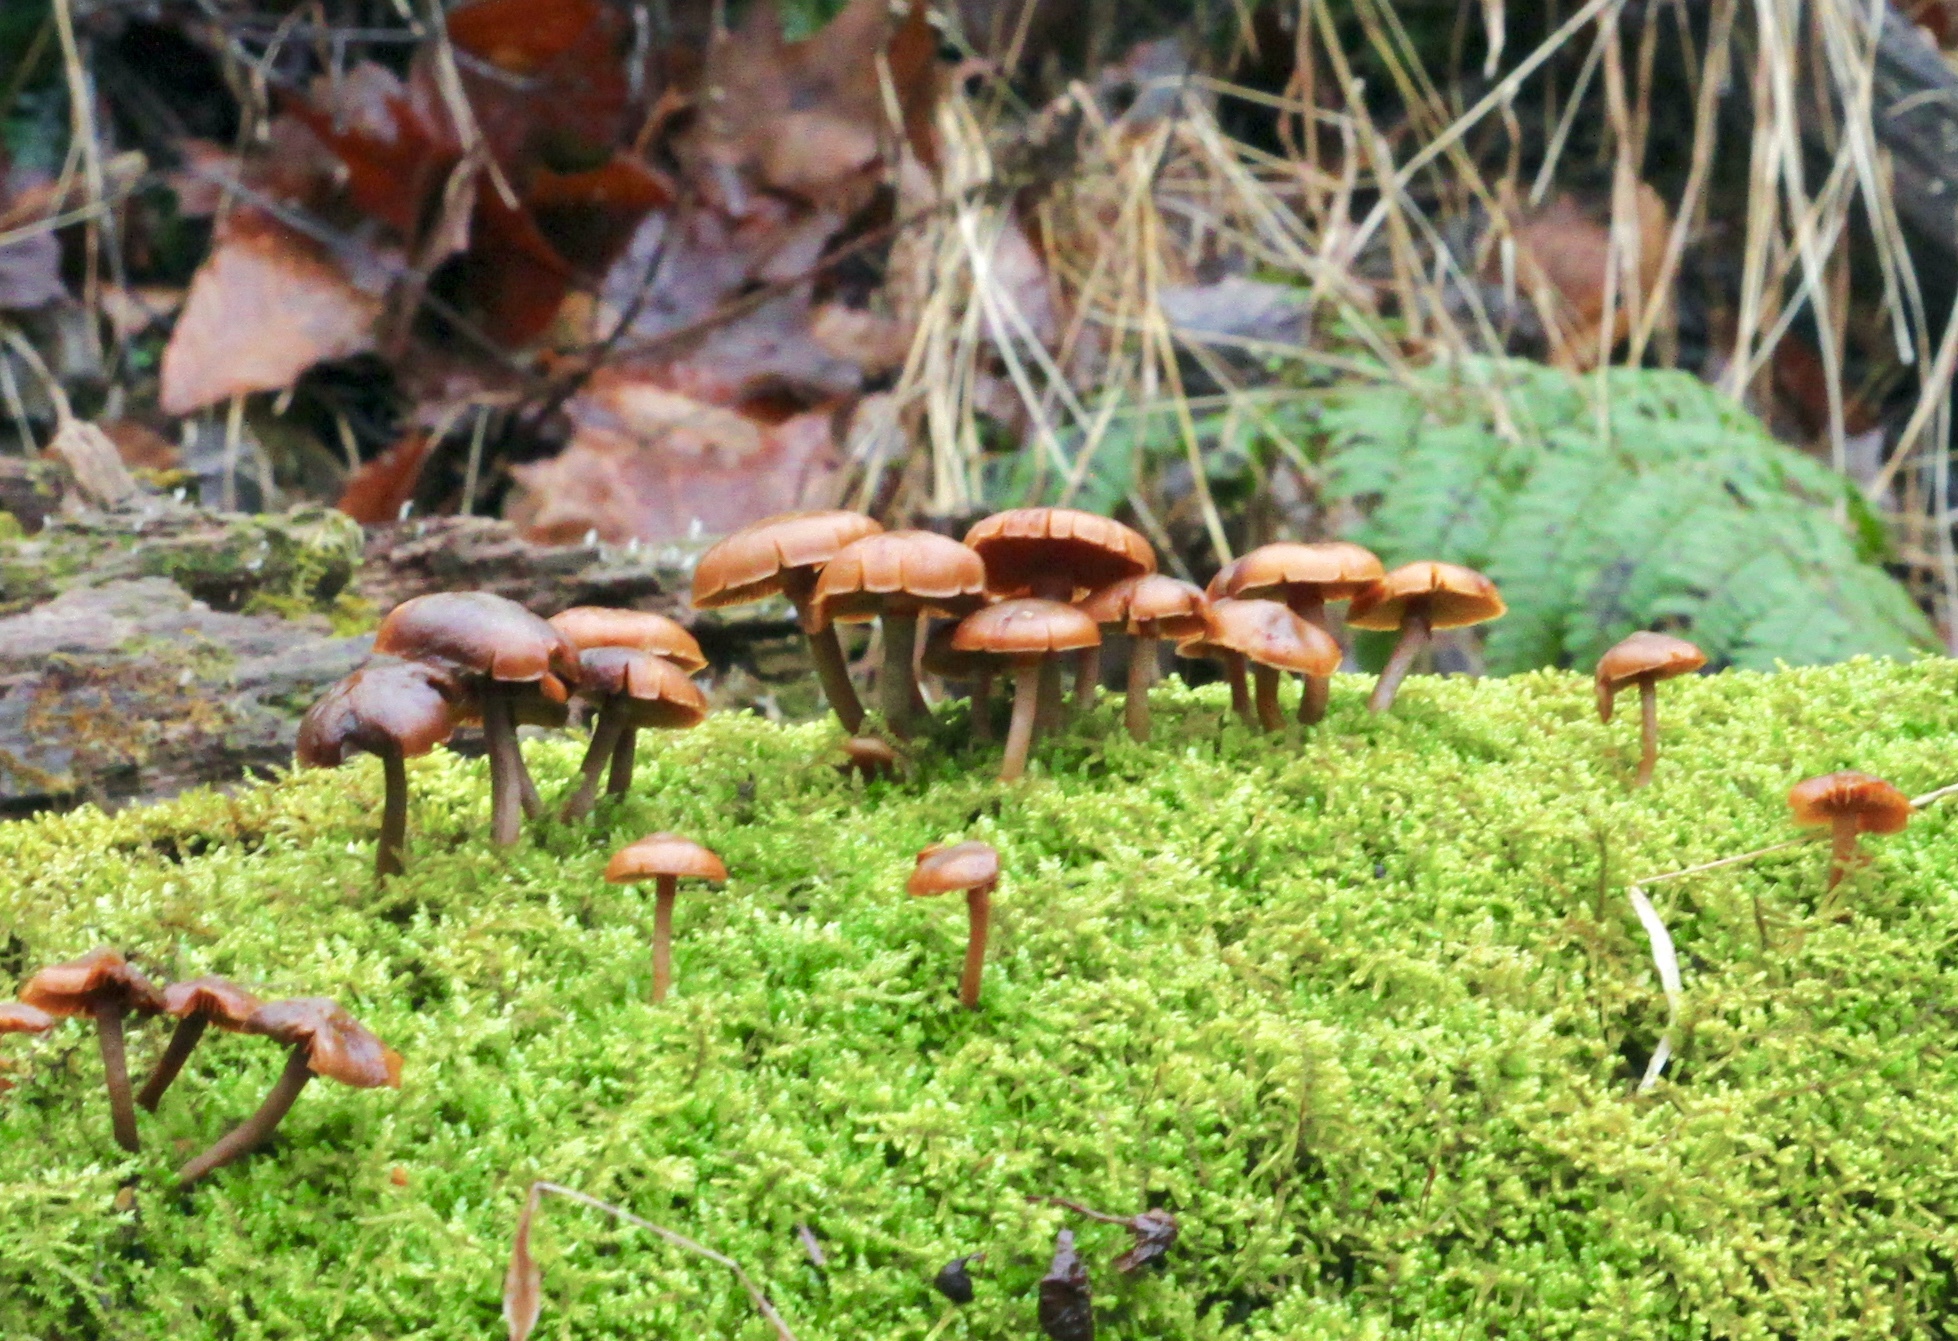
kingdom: Fungi
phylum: Basidiomycota
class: Agaricomycetes
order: Agaricales
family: Hymenogastraceae
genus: Galerina
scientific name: Galerina marginata
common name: Funeral bell
